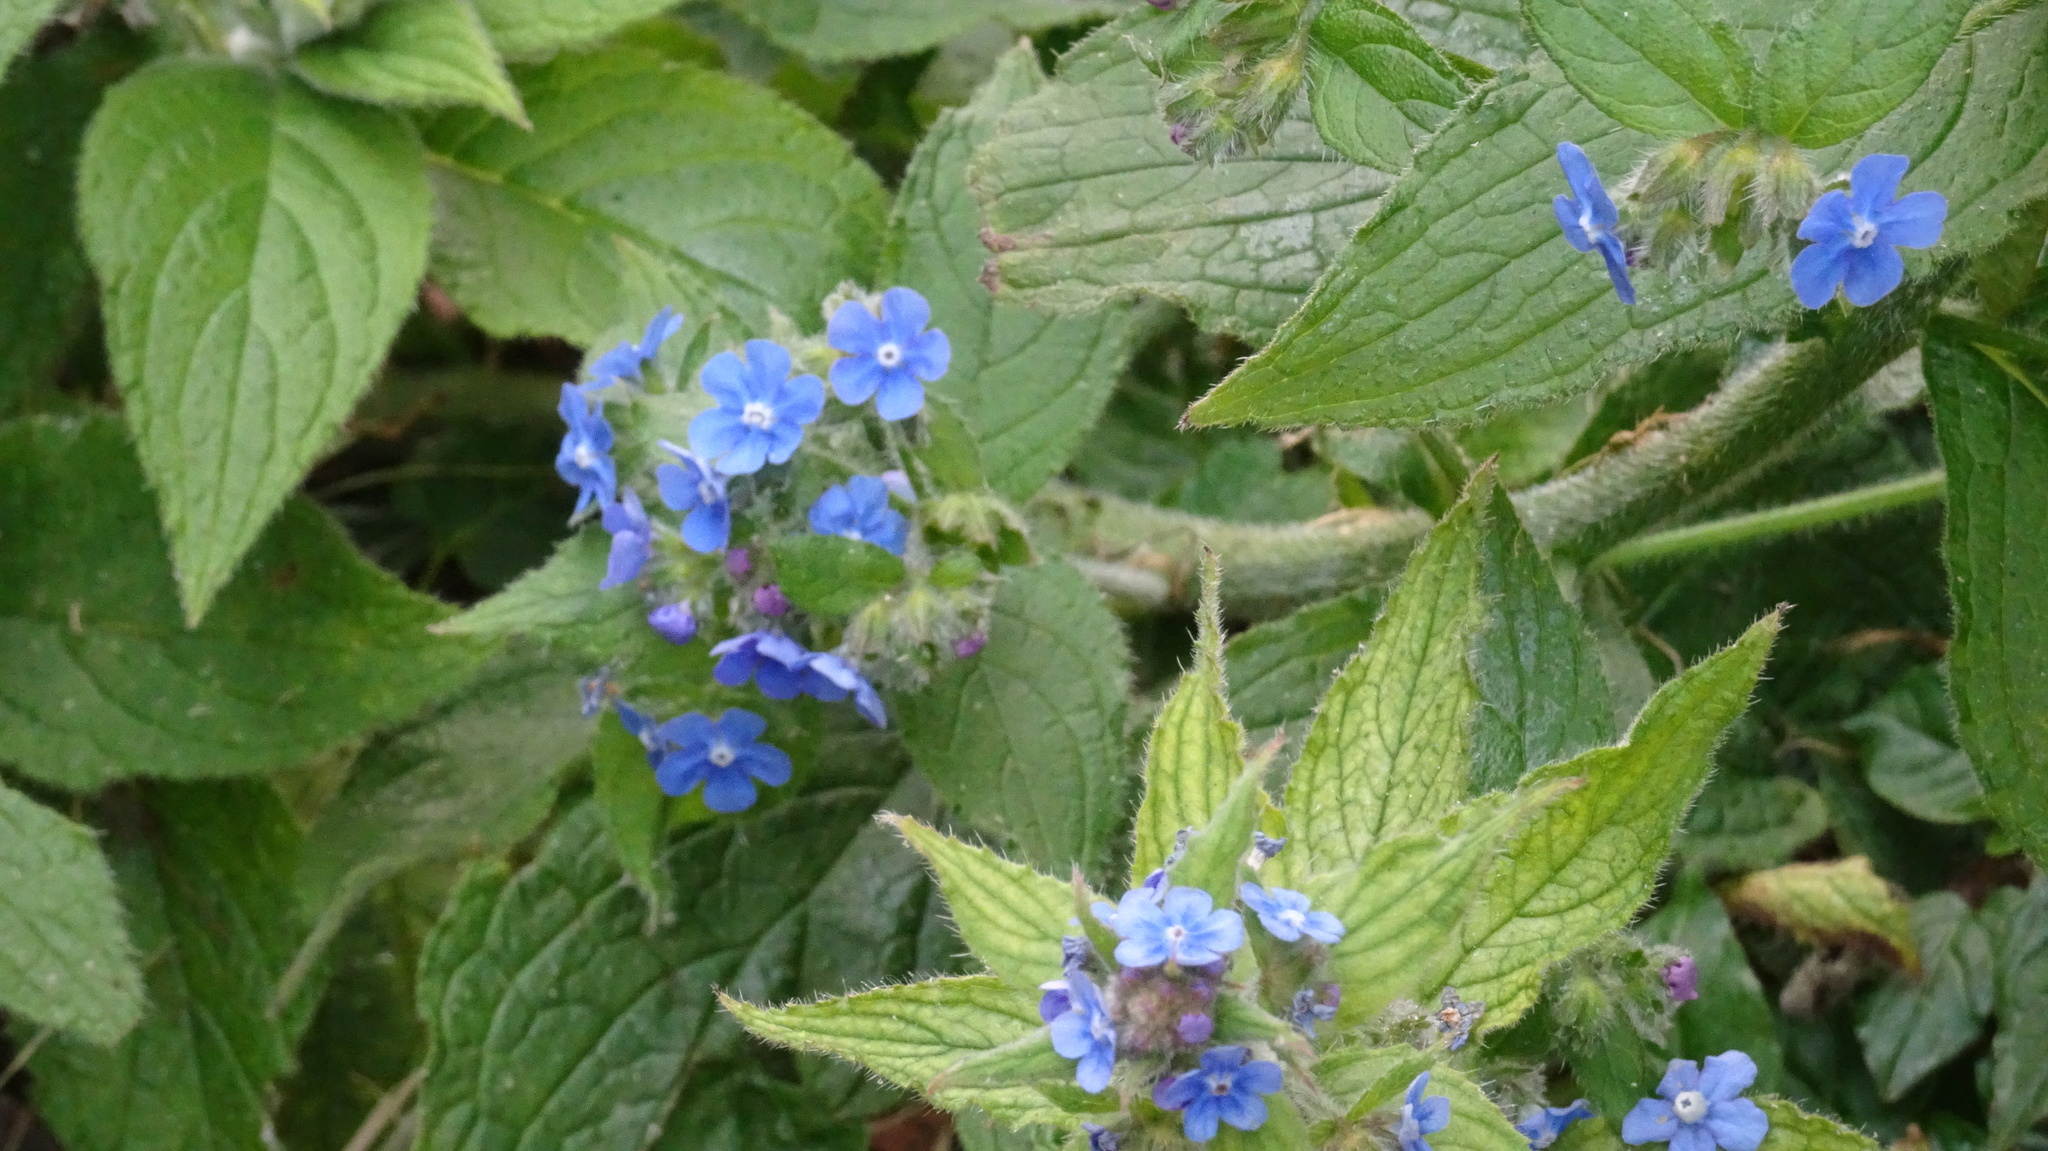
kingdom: Plantae
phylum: Tracheophyta
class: Magnoliopsida
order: Boraginales
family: Boraginaceae
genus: Pentaglottis
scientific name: Pentaglottis sempervirens
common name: Green alkanet
